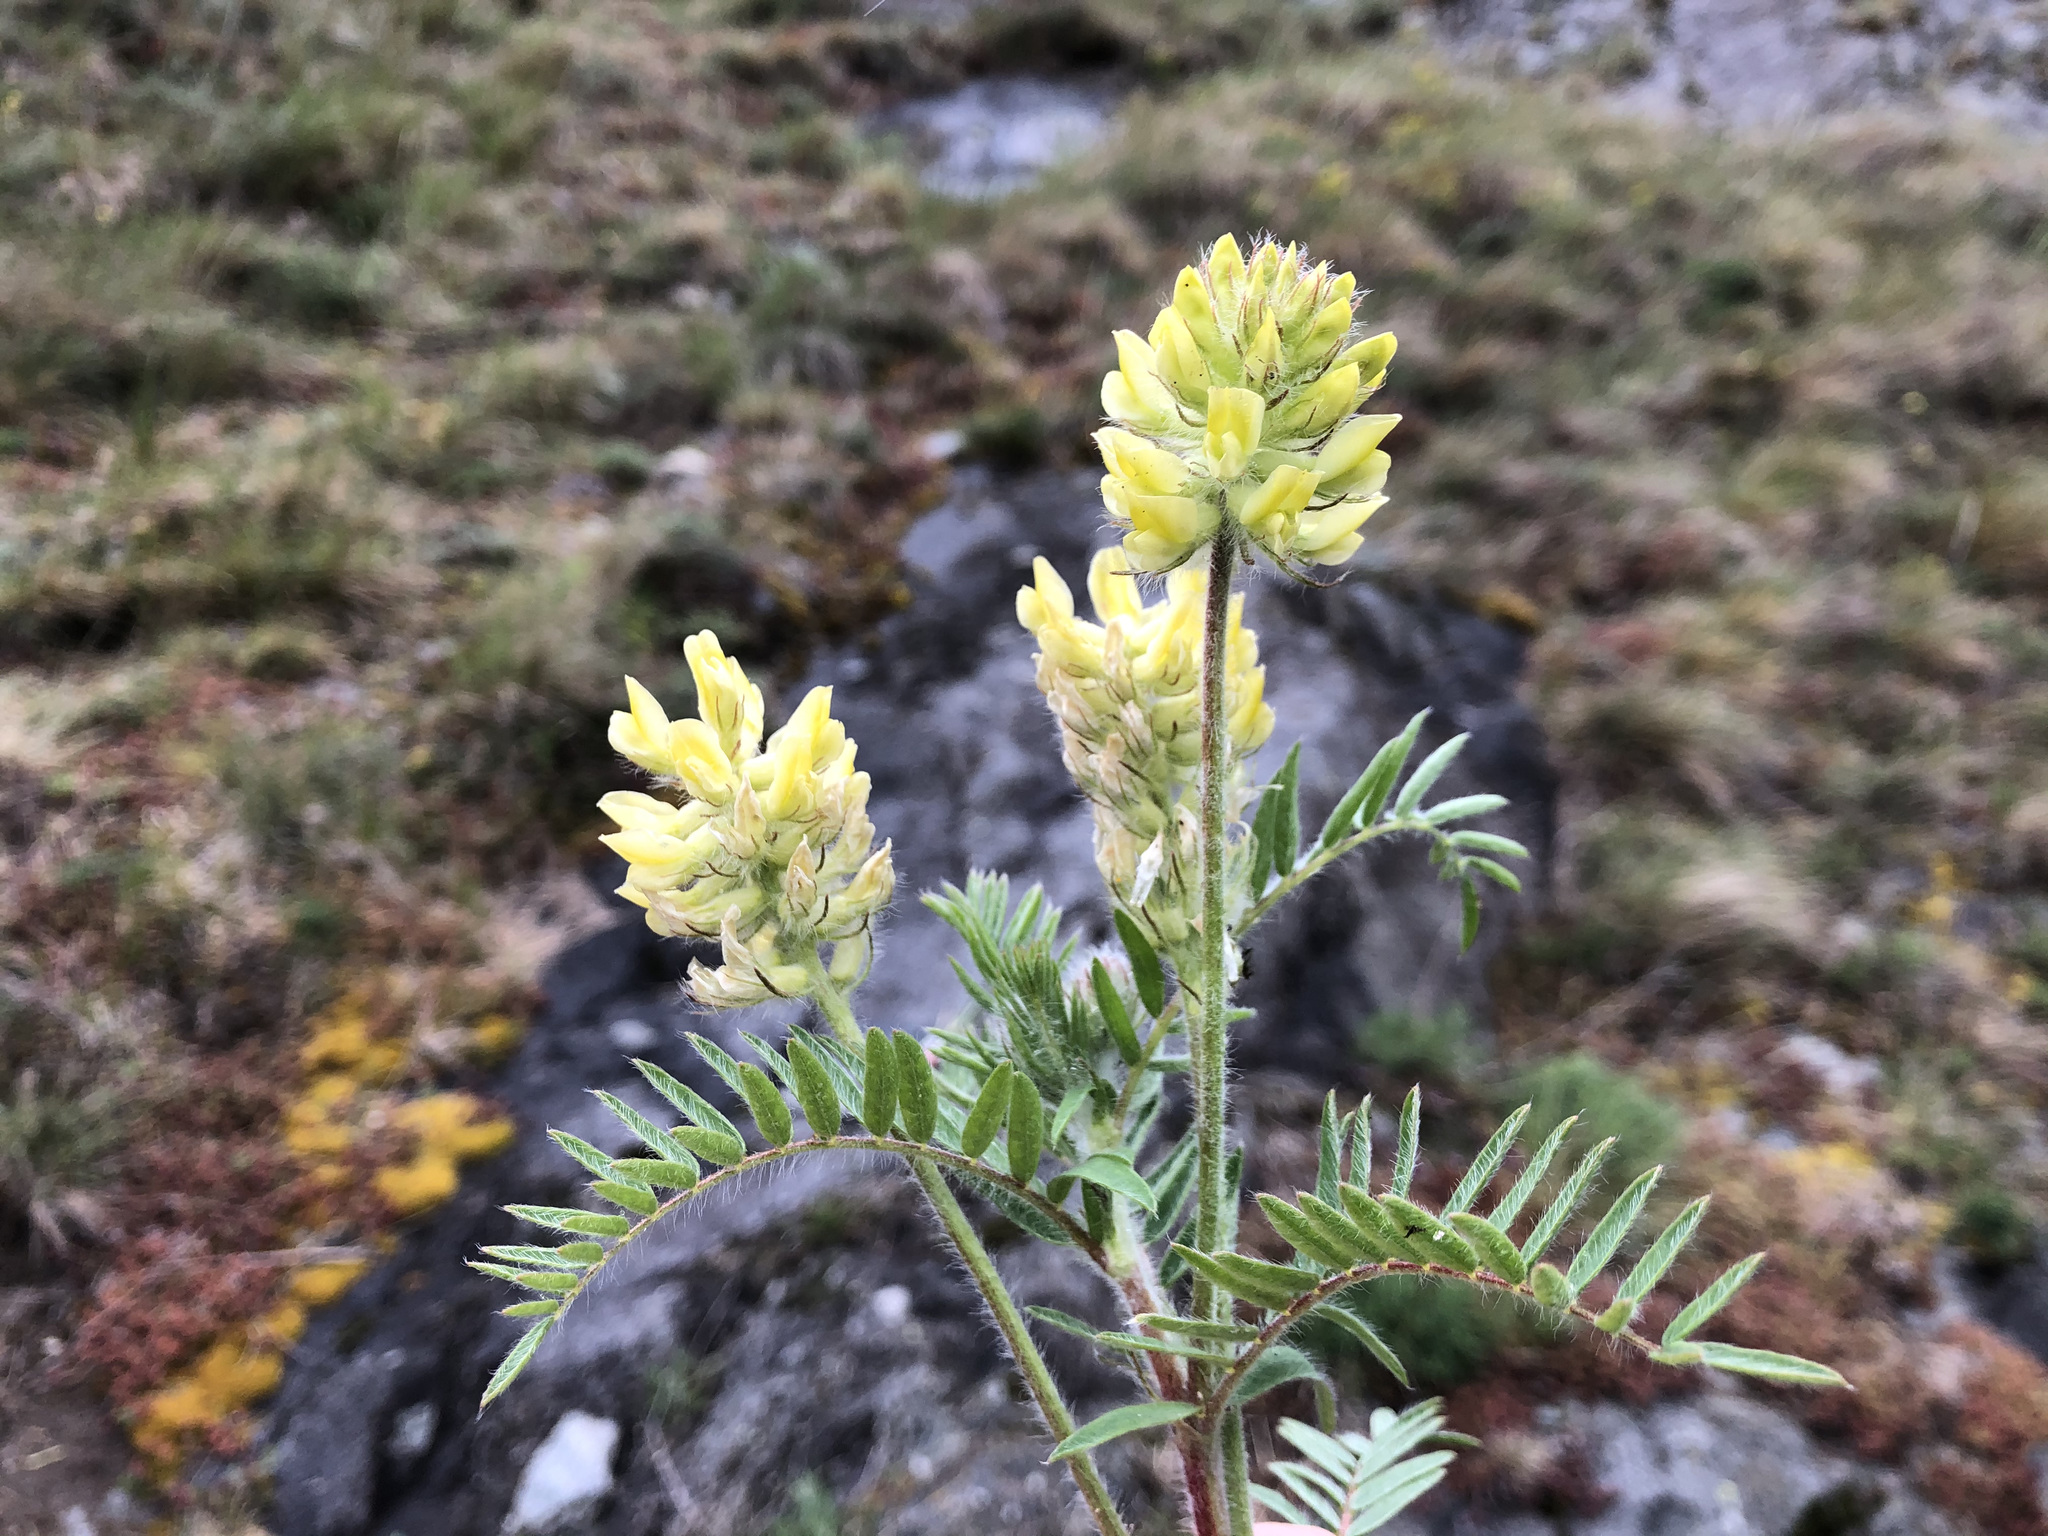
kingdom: Plantae
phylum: Tracheophyta
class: Magnoliopsida
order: Fabales
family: Fabaceae
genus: Oxytropis
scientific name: Oxytropis pilosa
